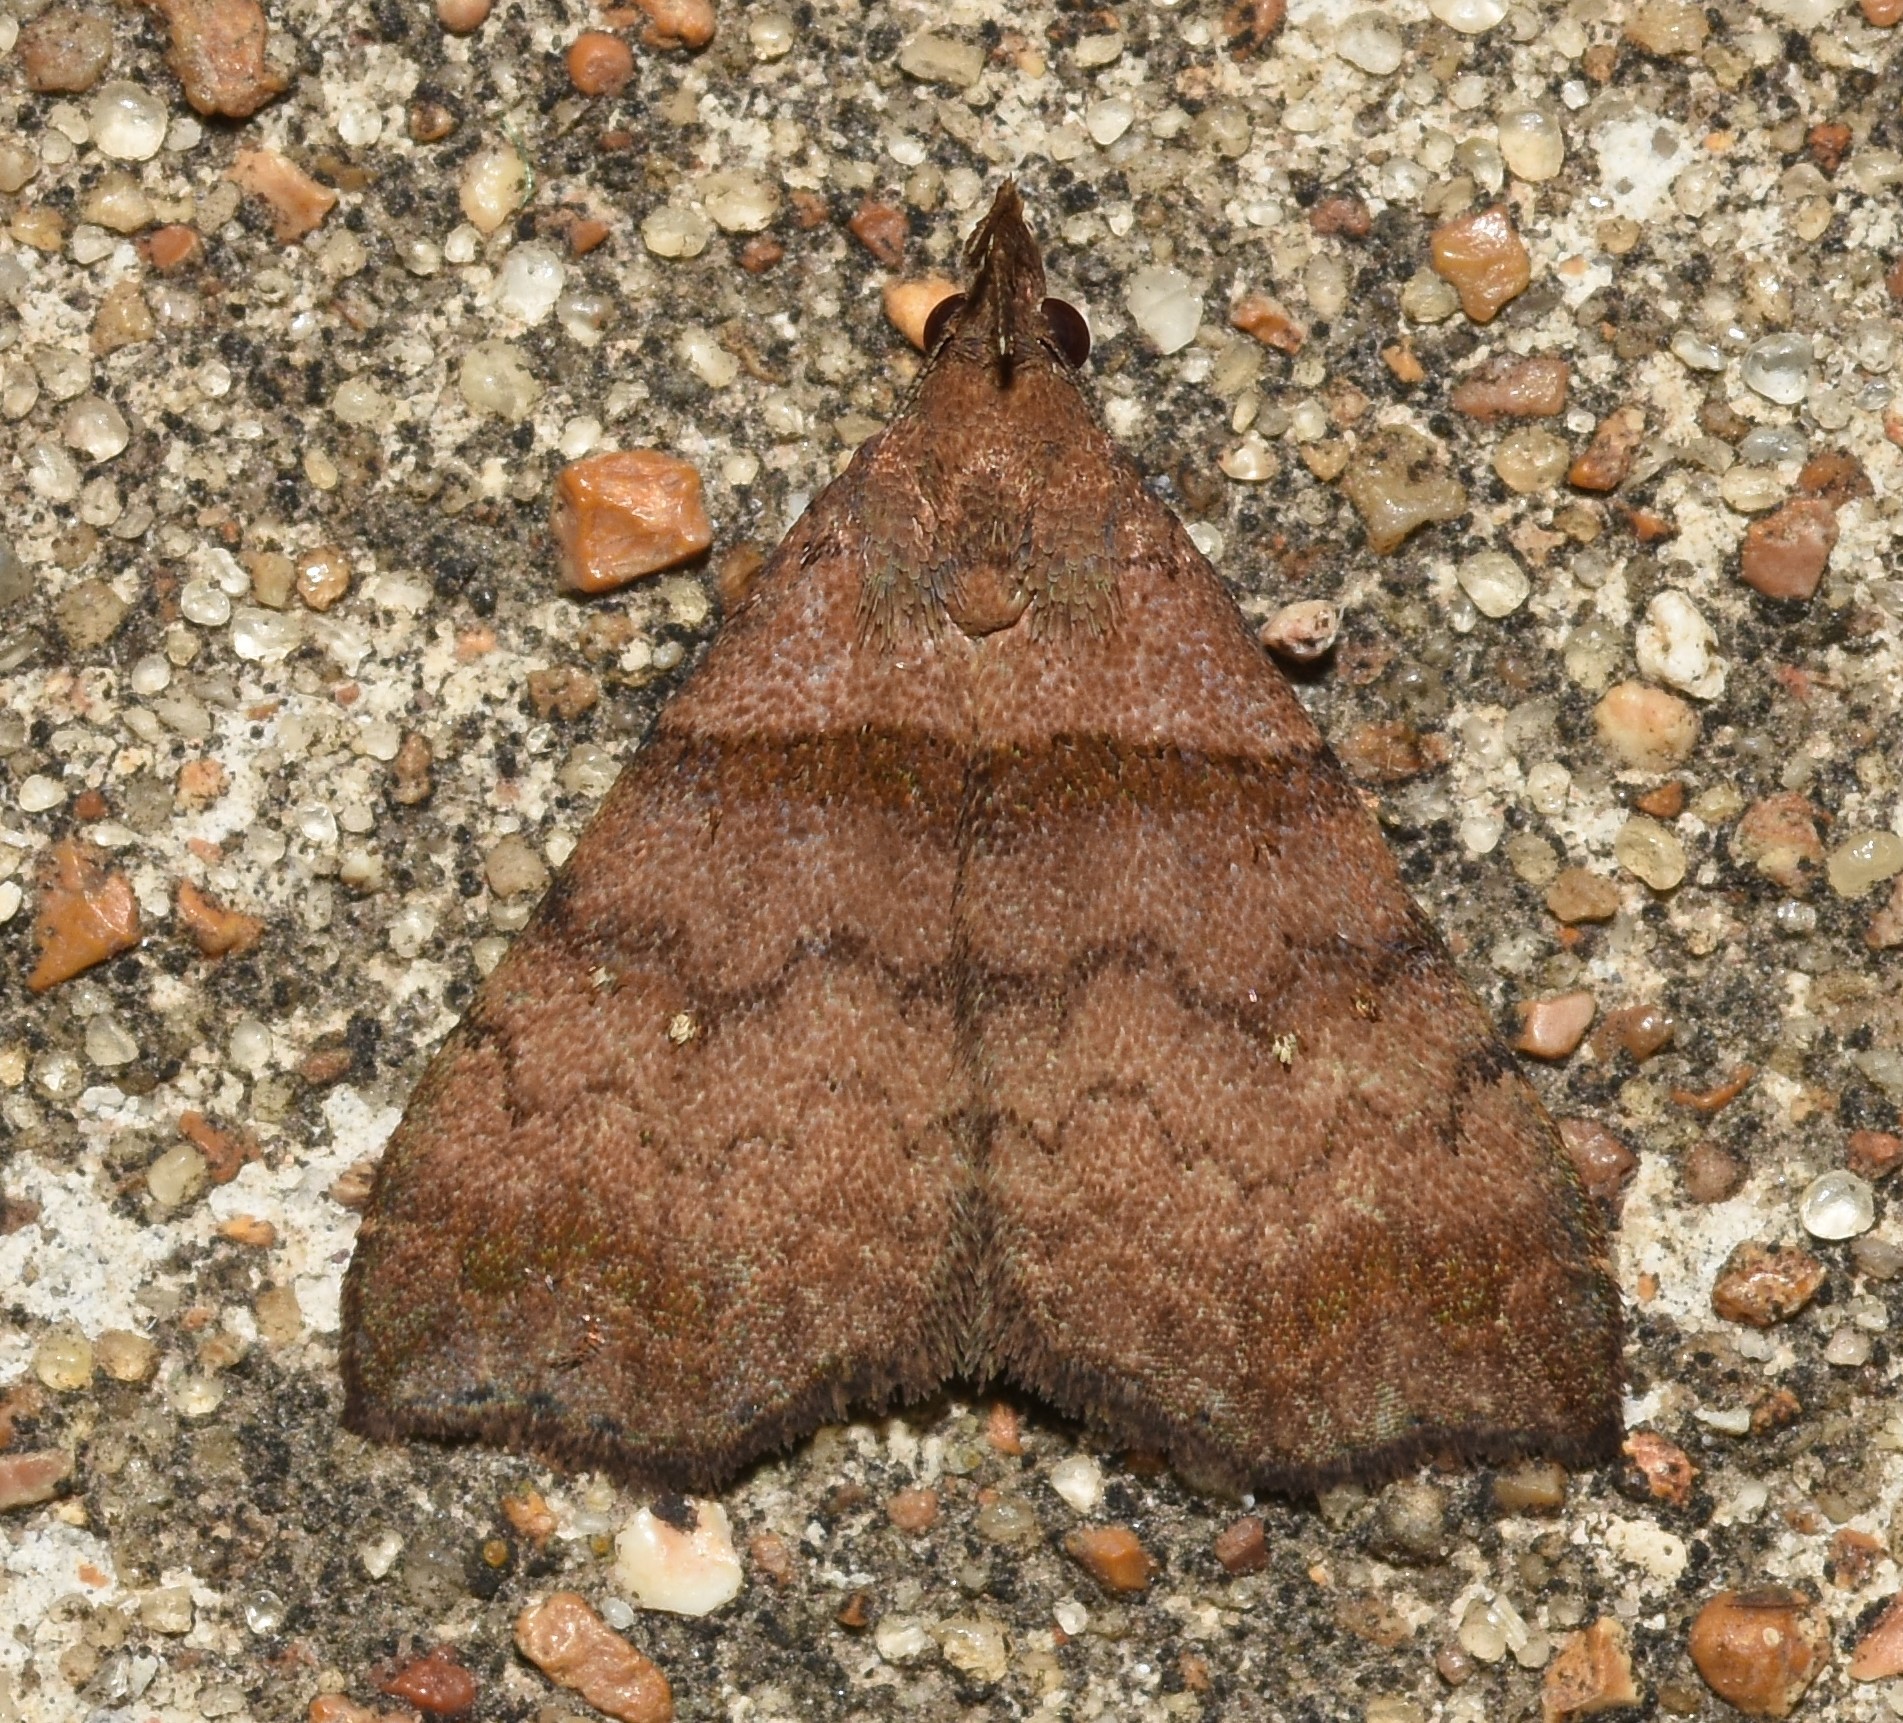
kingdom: Animalia
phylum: Arthropoda
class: Insecta
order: Lepidoptera
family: Erebidae
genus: Lascoria
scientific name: Lascoria ambigualis
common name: Ambiguous moth
